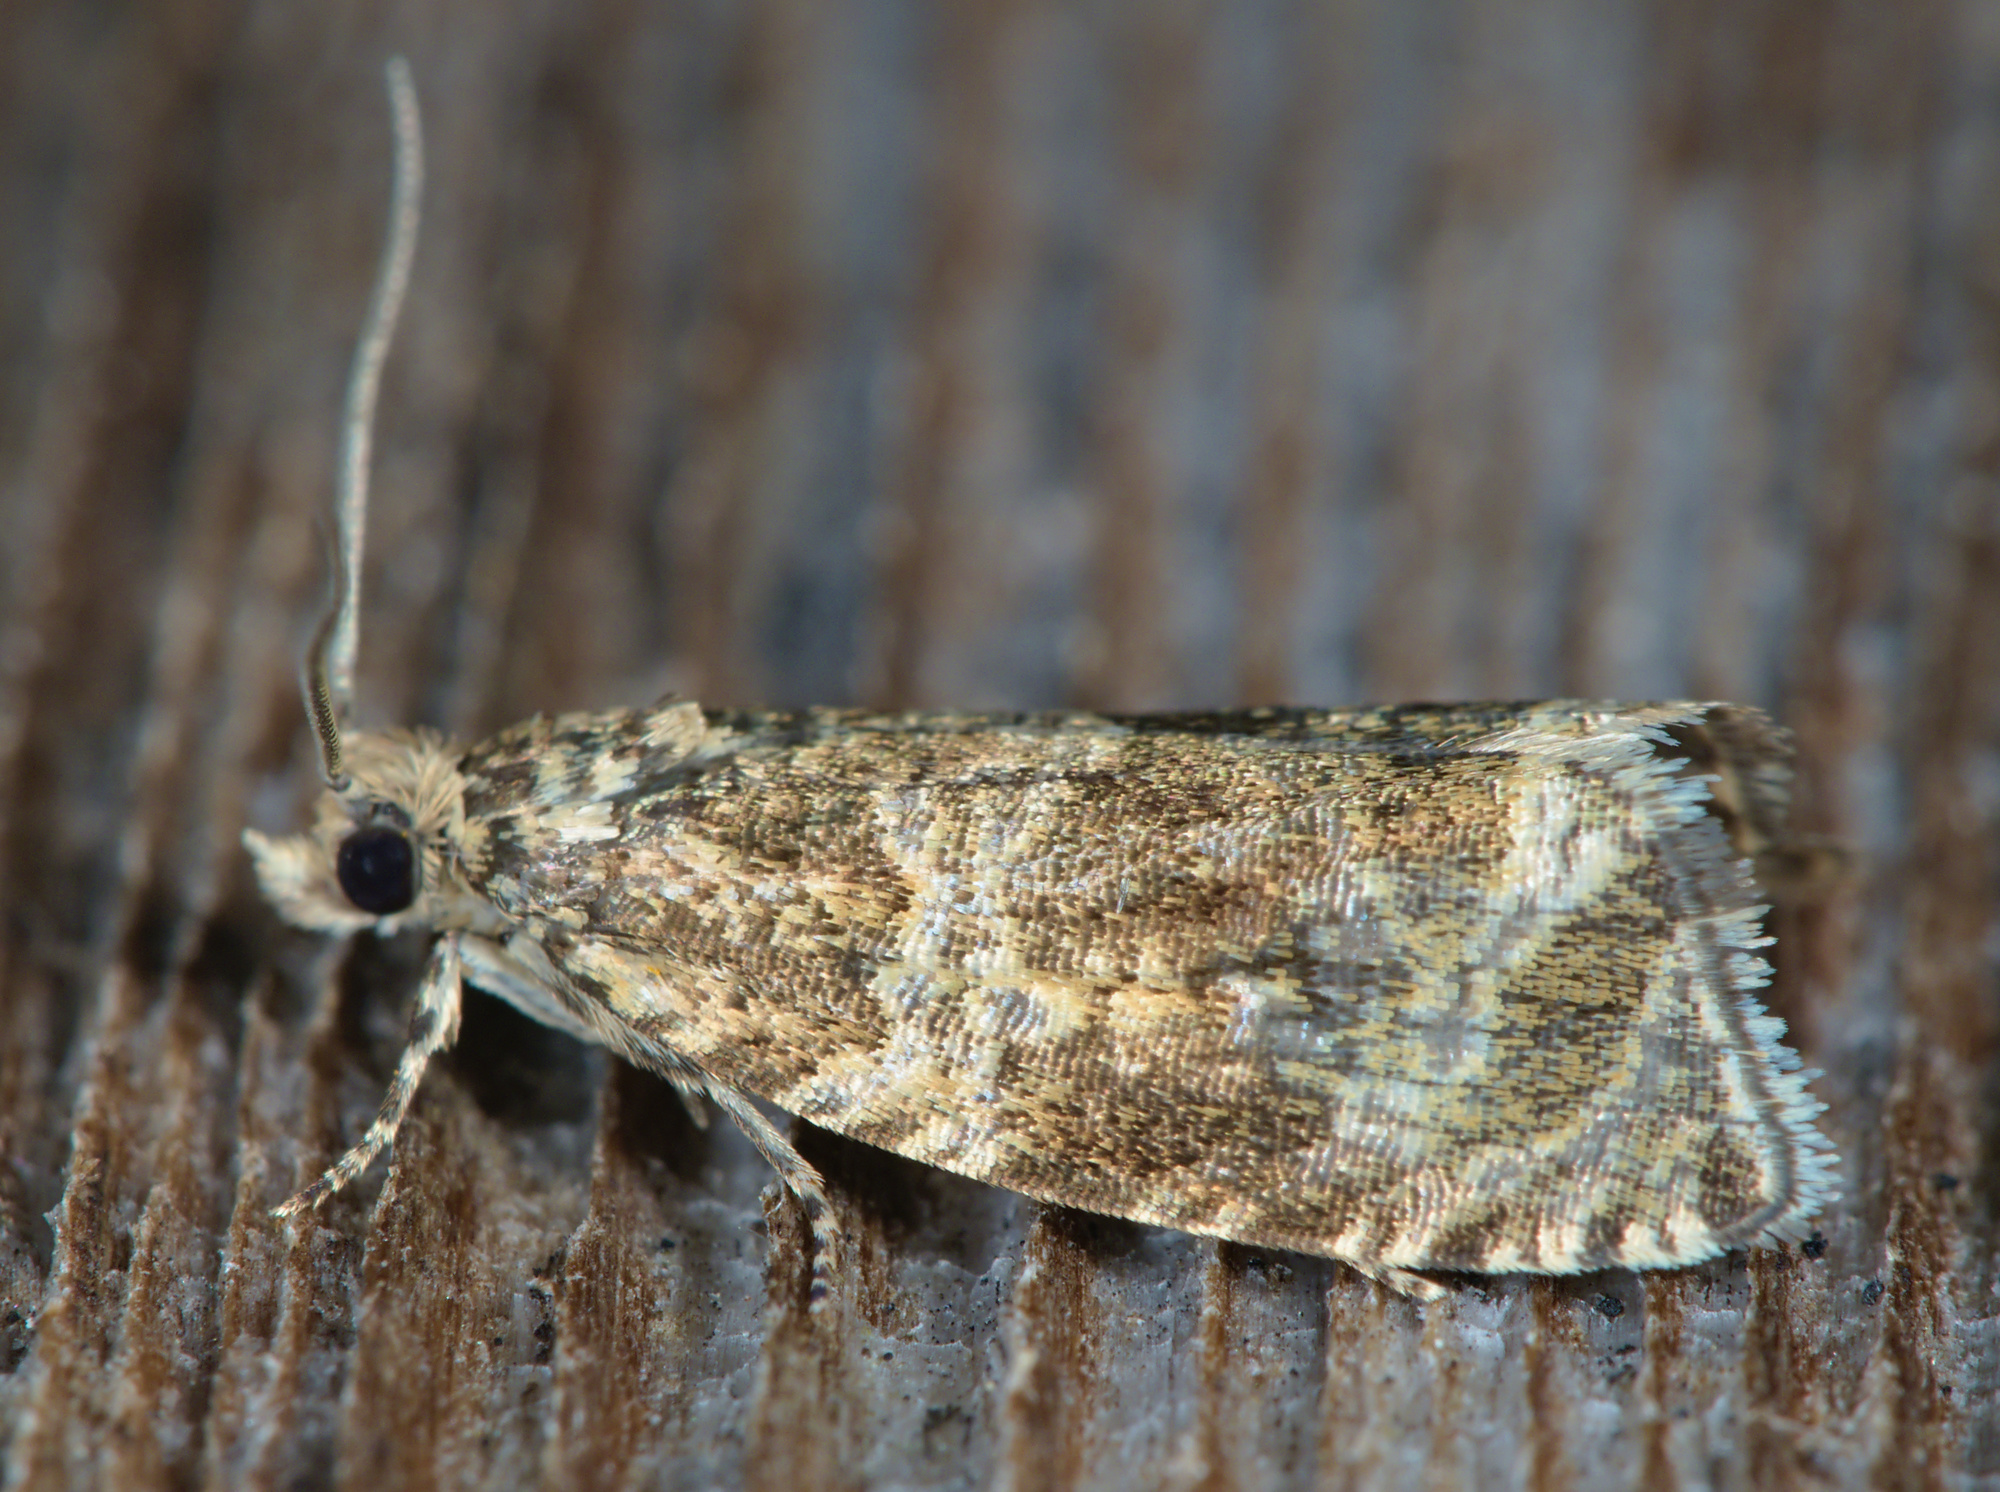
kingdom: Animalia
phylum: Arthropoda
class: Insecta
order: Lepidoptera
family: Tortricidae
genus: Syricoris
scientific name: Syricoris lacunana
